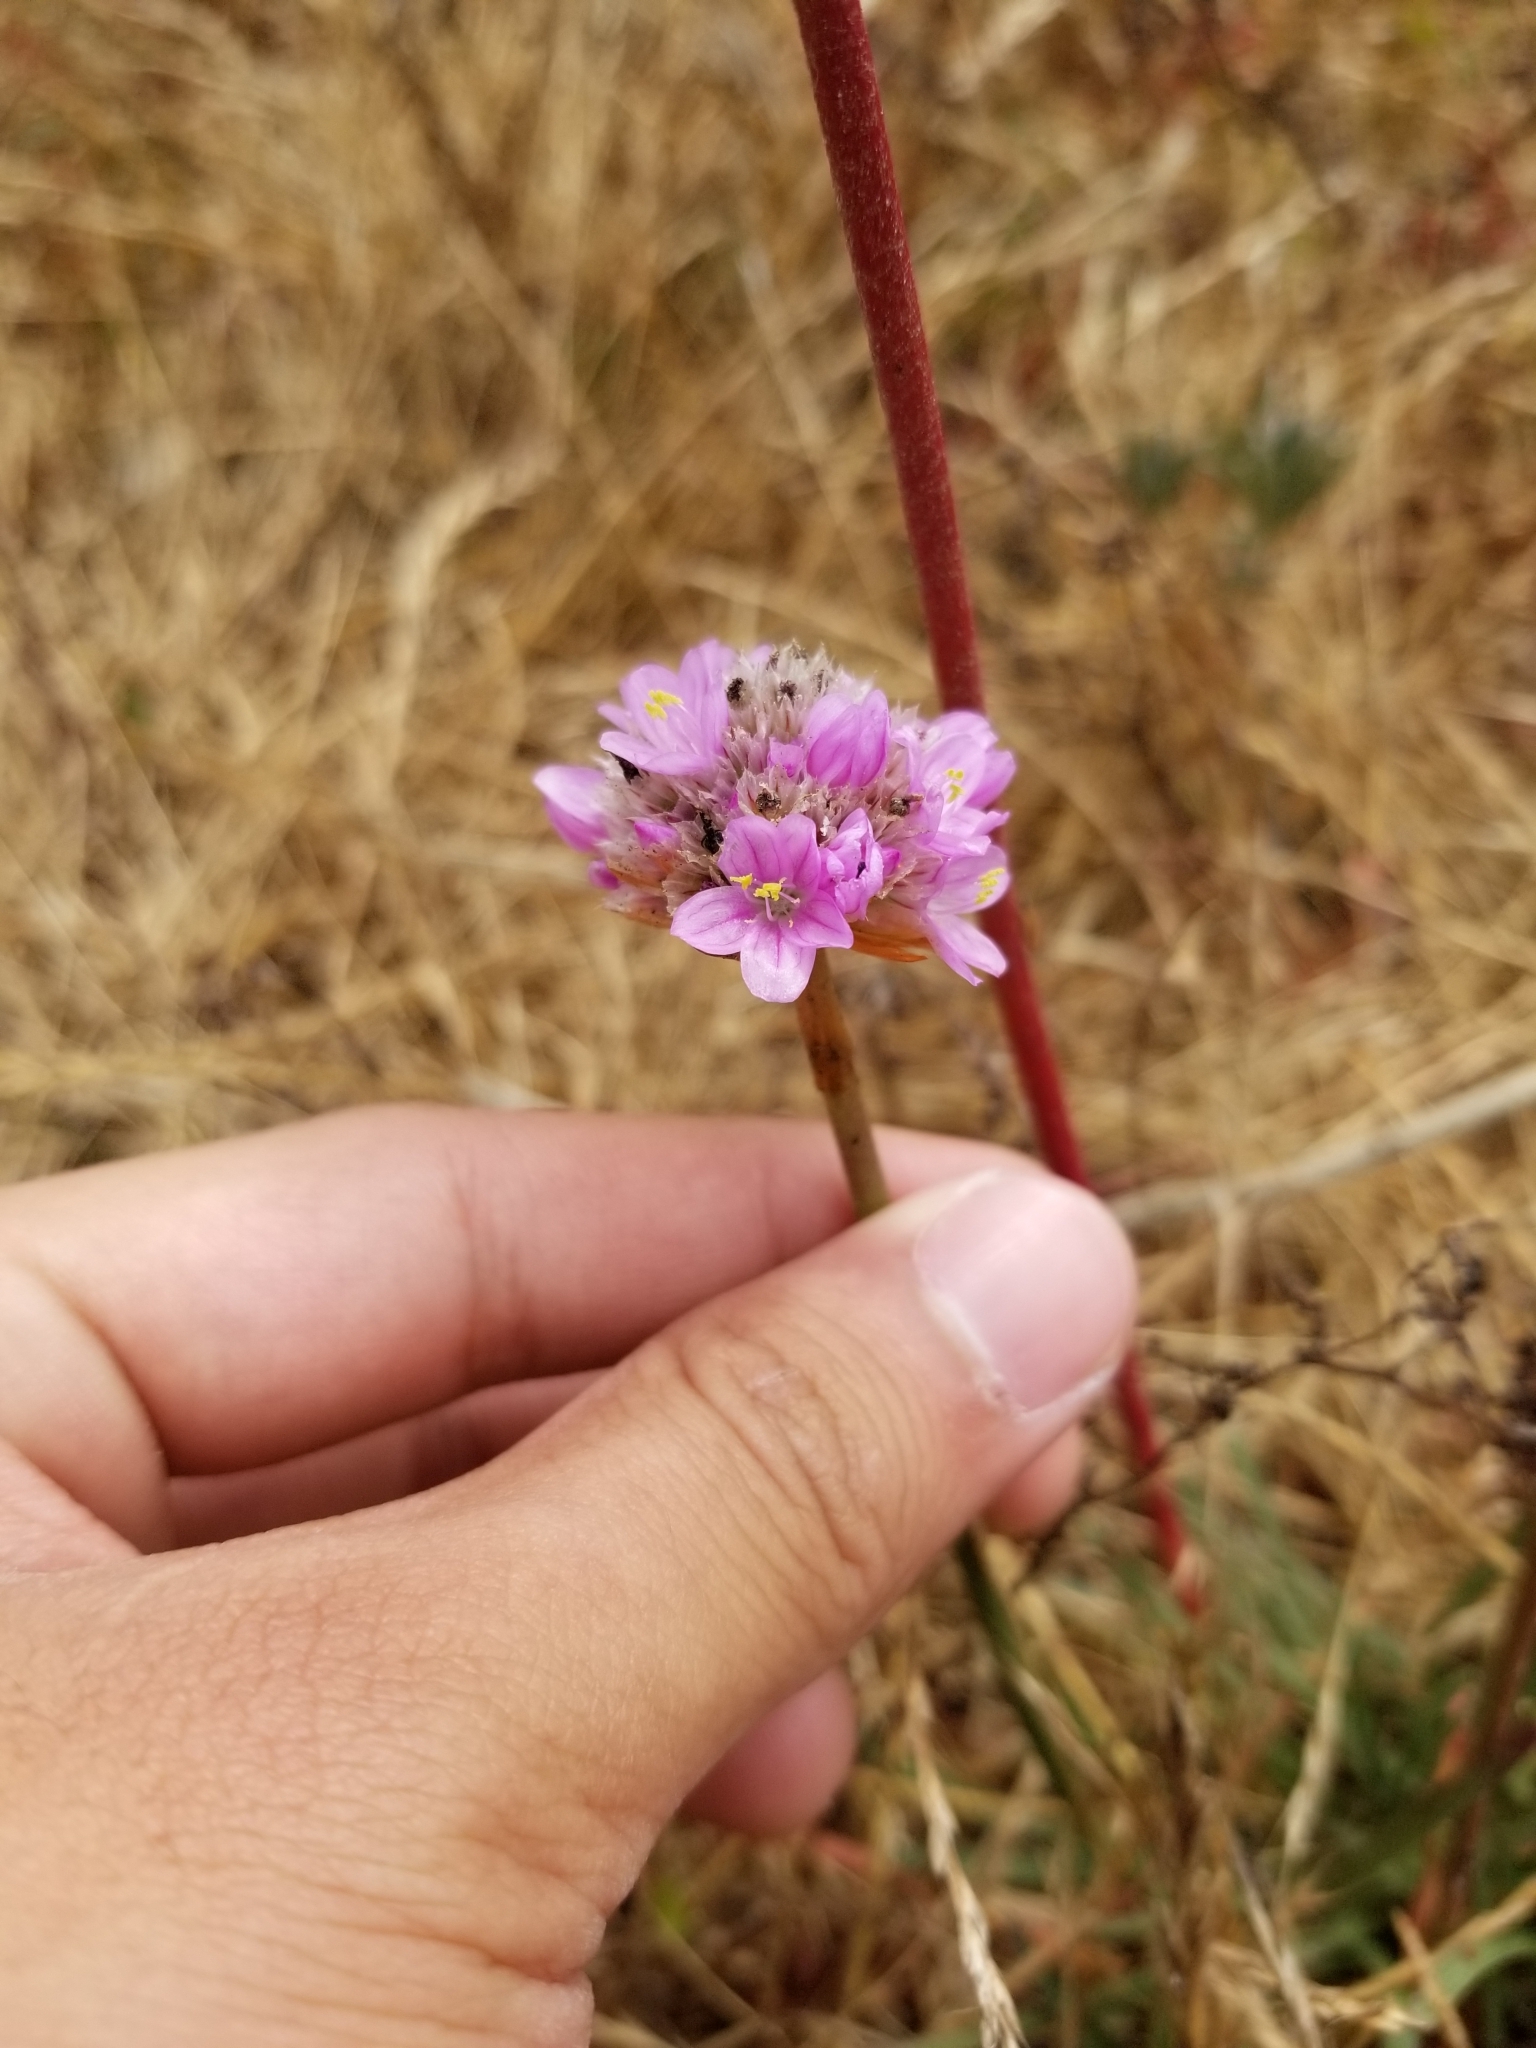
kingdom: Plantae
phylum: Tracheophyta
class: Magnoliopsida
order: Caryophyllales
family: Plumbaginaceae
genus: Armeria
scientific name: Armeria maritima
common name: Thrift
